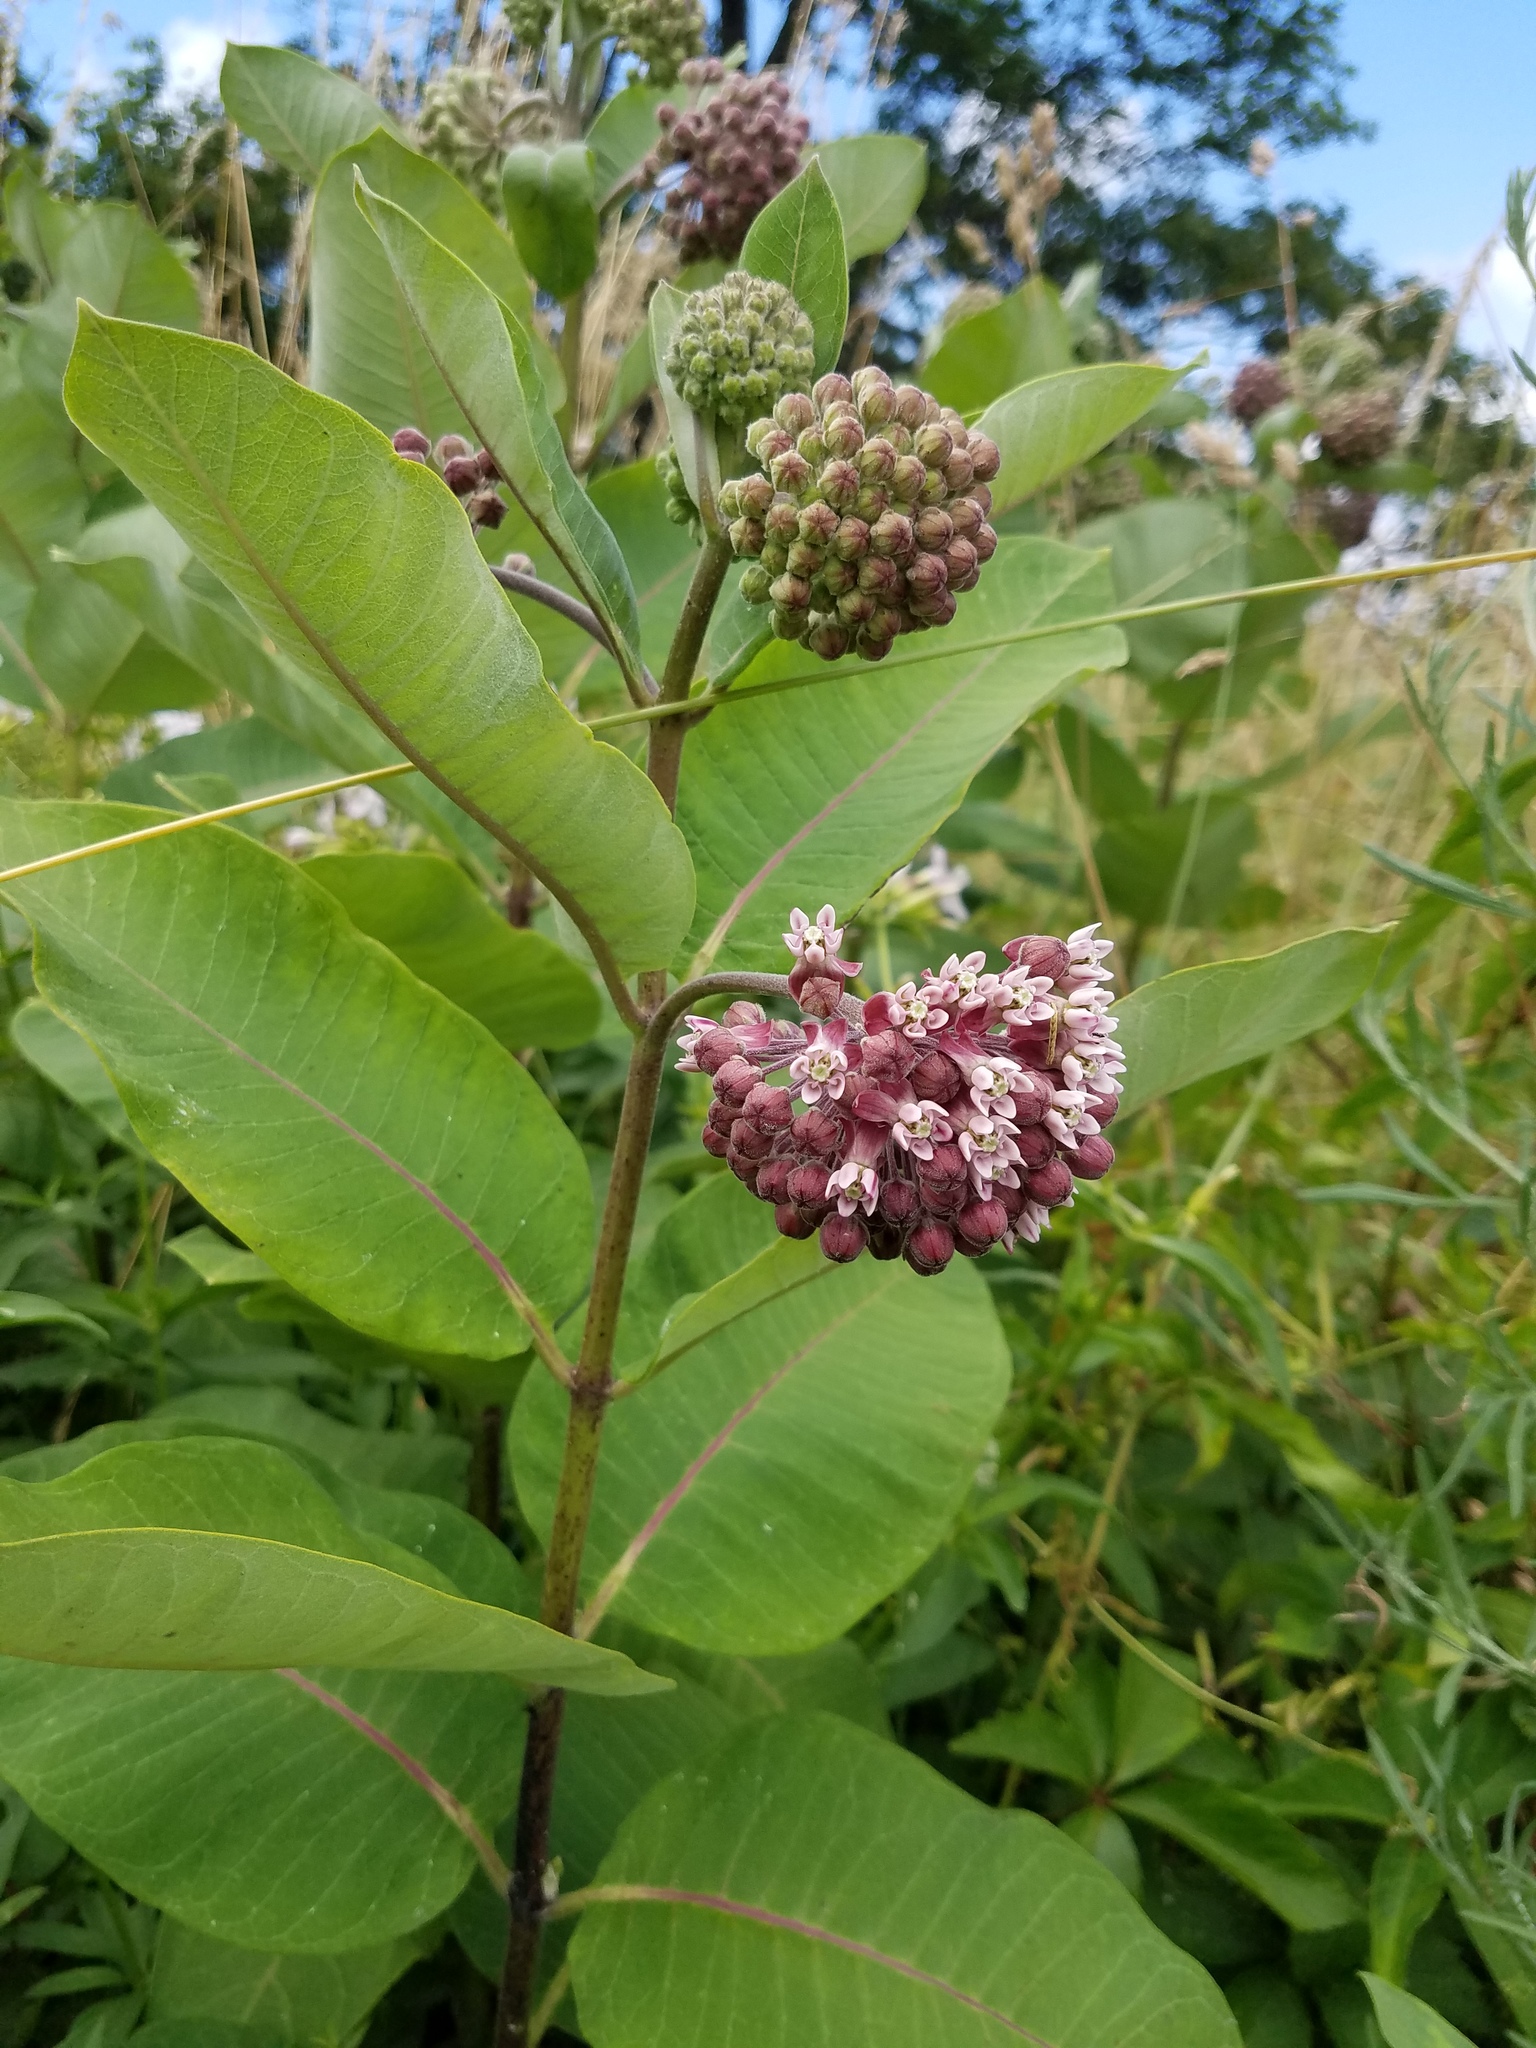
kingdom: Plantae
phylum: Tracheophyta
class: Magnoliopsida
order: Gentianales
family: Apocynaceae
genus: Asclepias
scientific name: Asclepias syriaca
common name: Common milkweed
